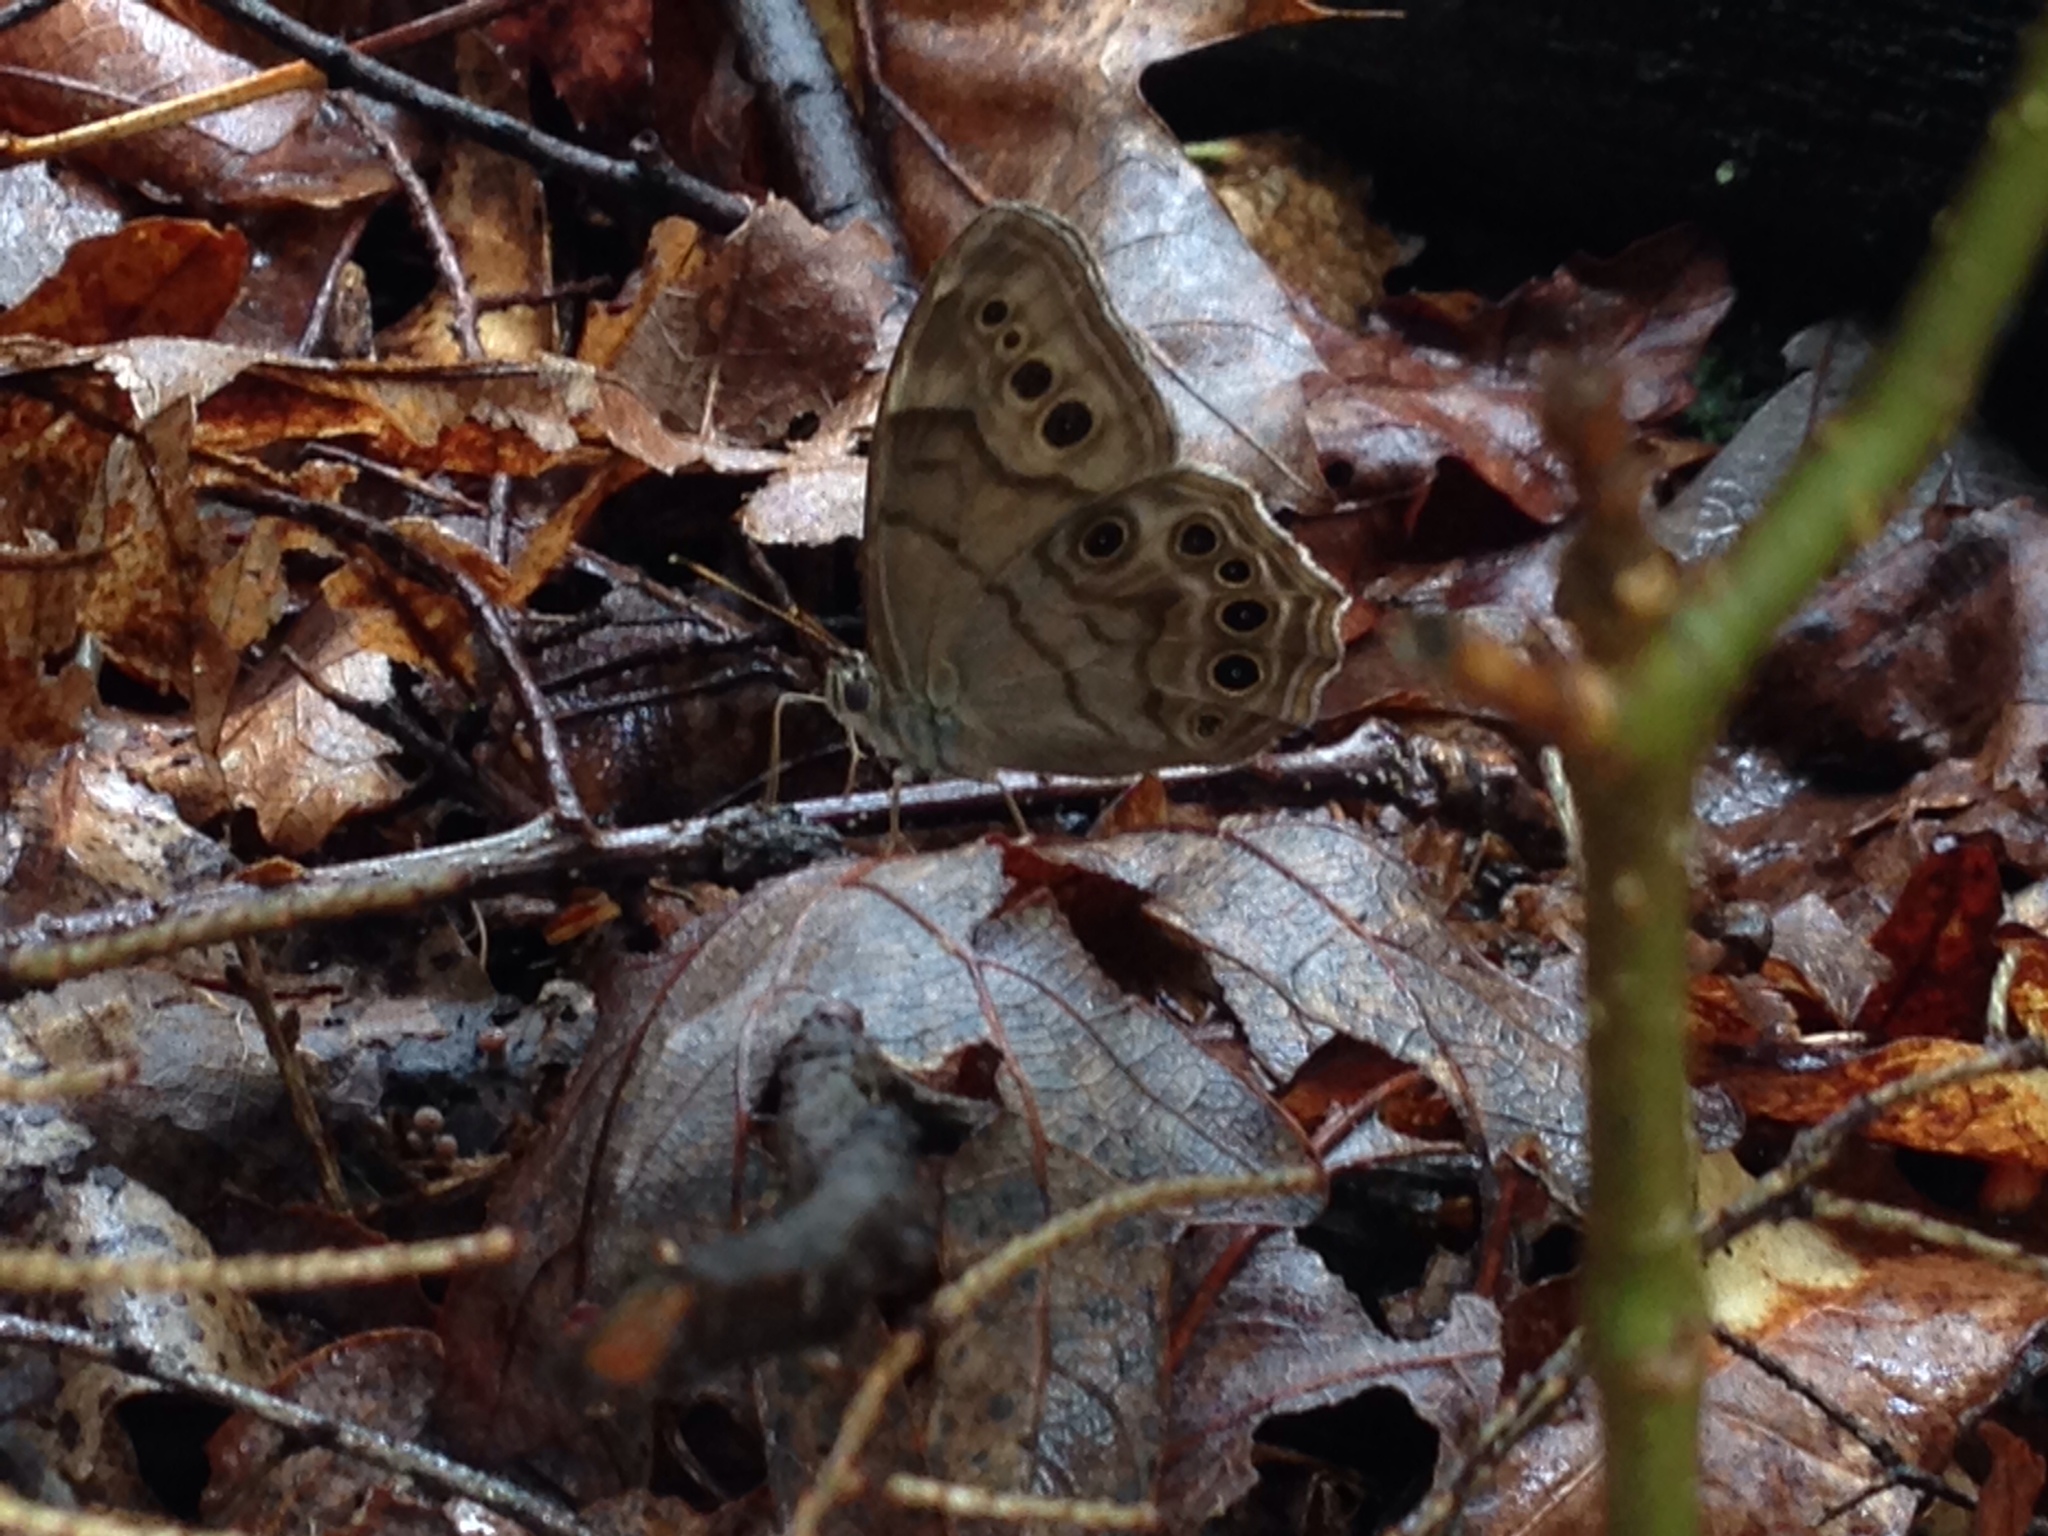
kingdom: Animalia
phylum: Arthropoda
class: Insecta
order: Lepidoptera
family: Nymphalidae
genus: Lethe
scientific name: Lethe anthedon
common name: Northern pearly-eye
